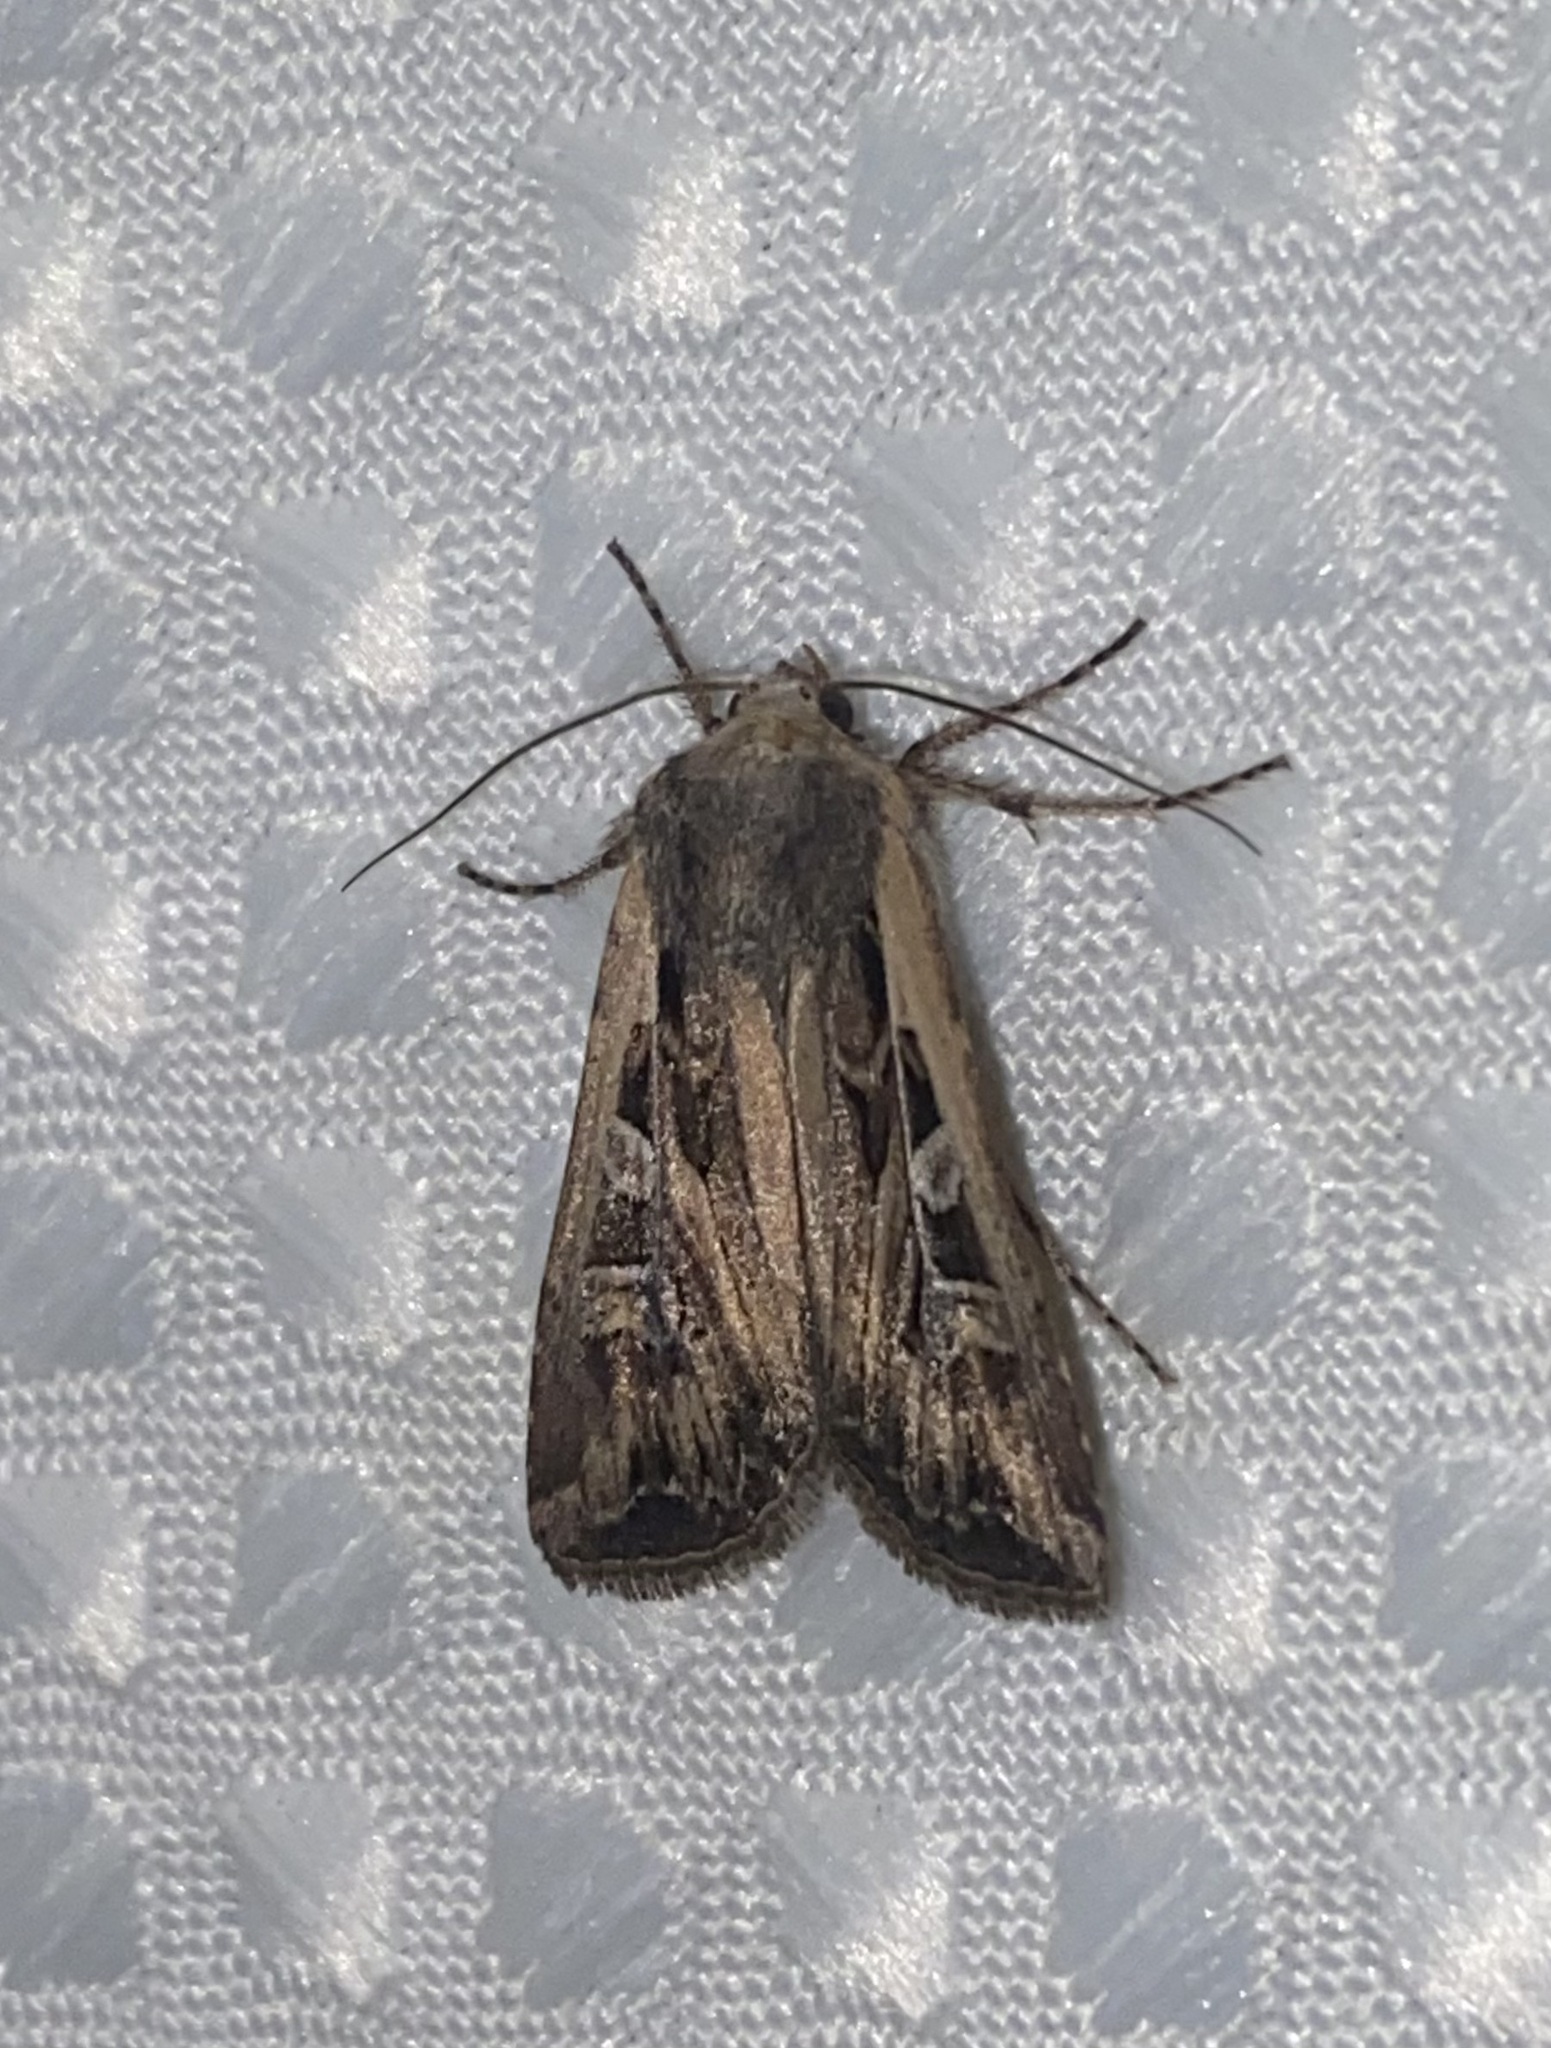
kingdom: Animalia
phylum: Arthropoda
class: Insecta
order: Lepidoptera
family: Noctuidae
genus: Euxoa
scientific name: Euxoa auxiliaris
